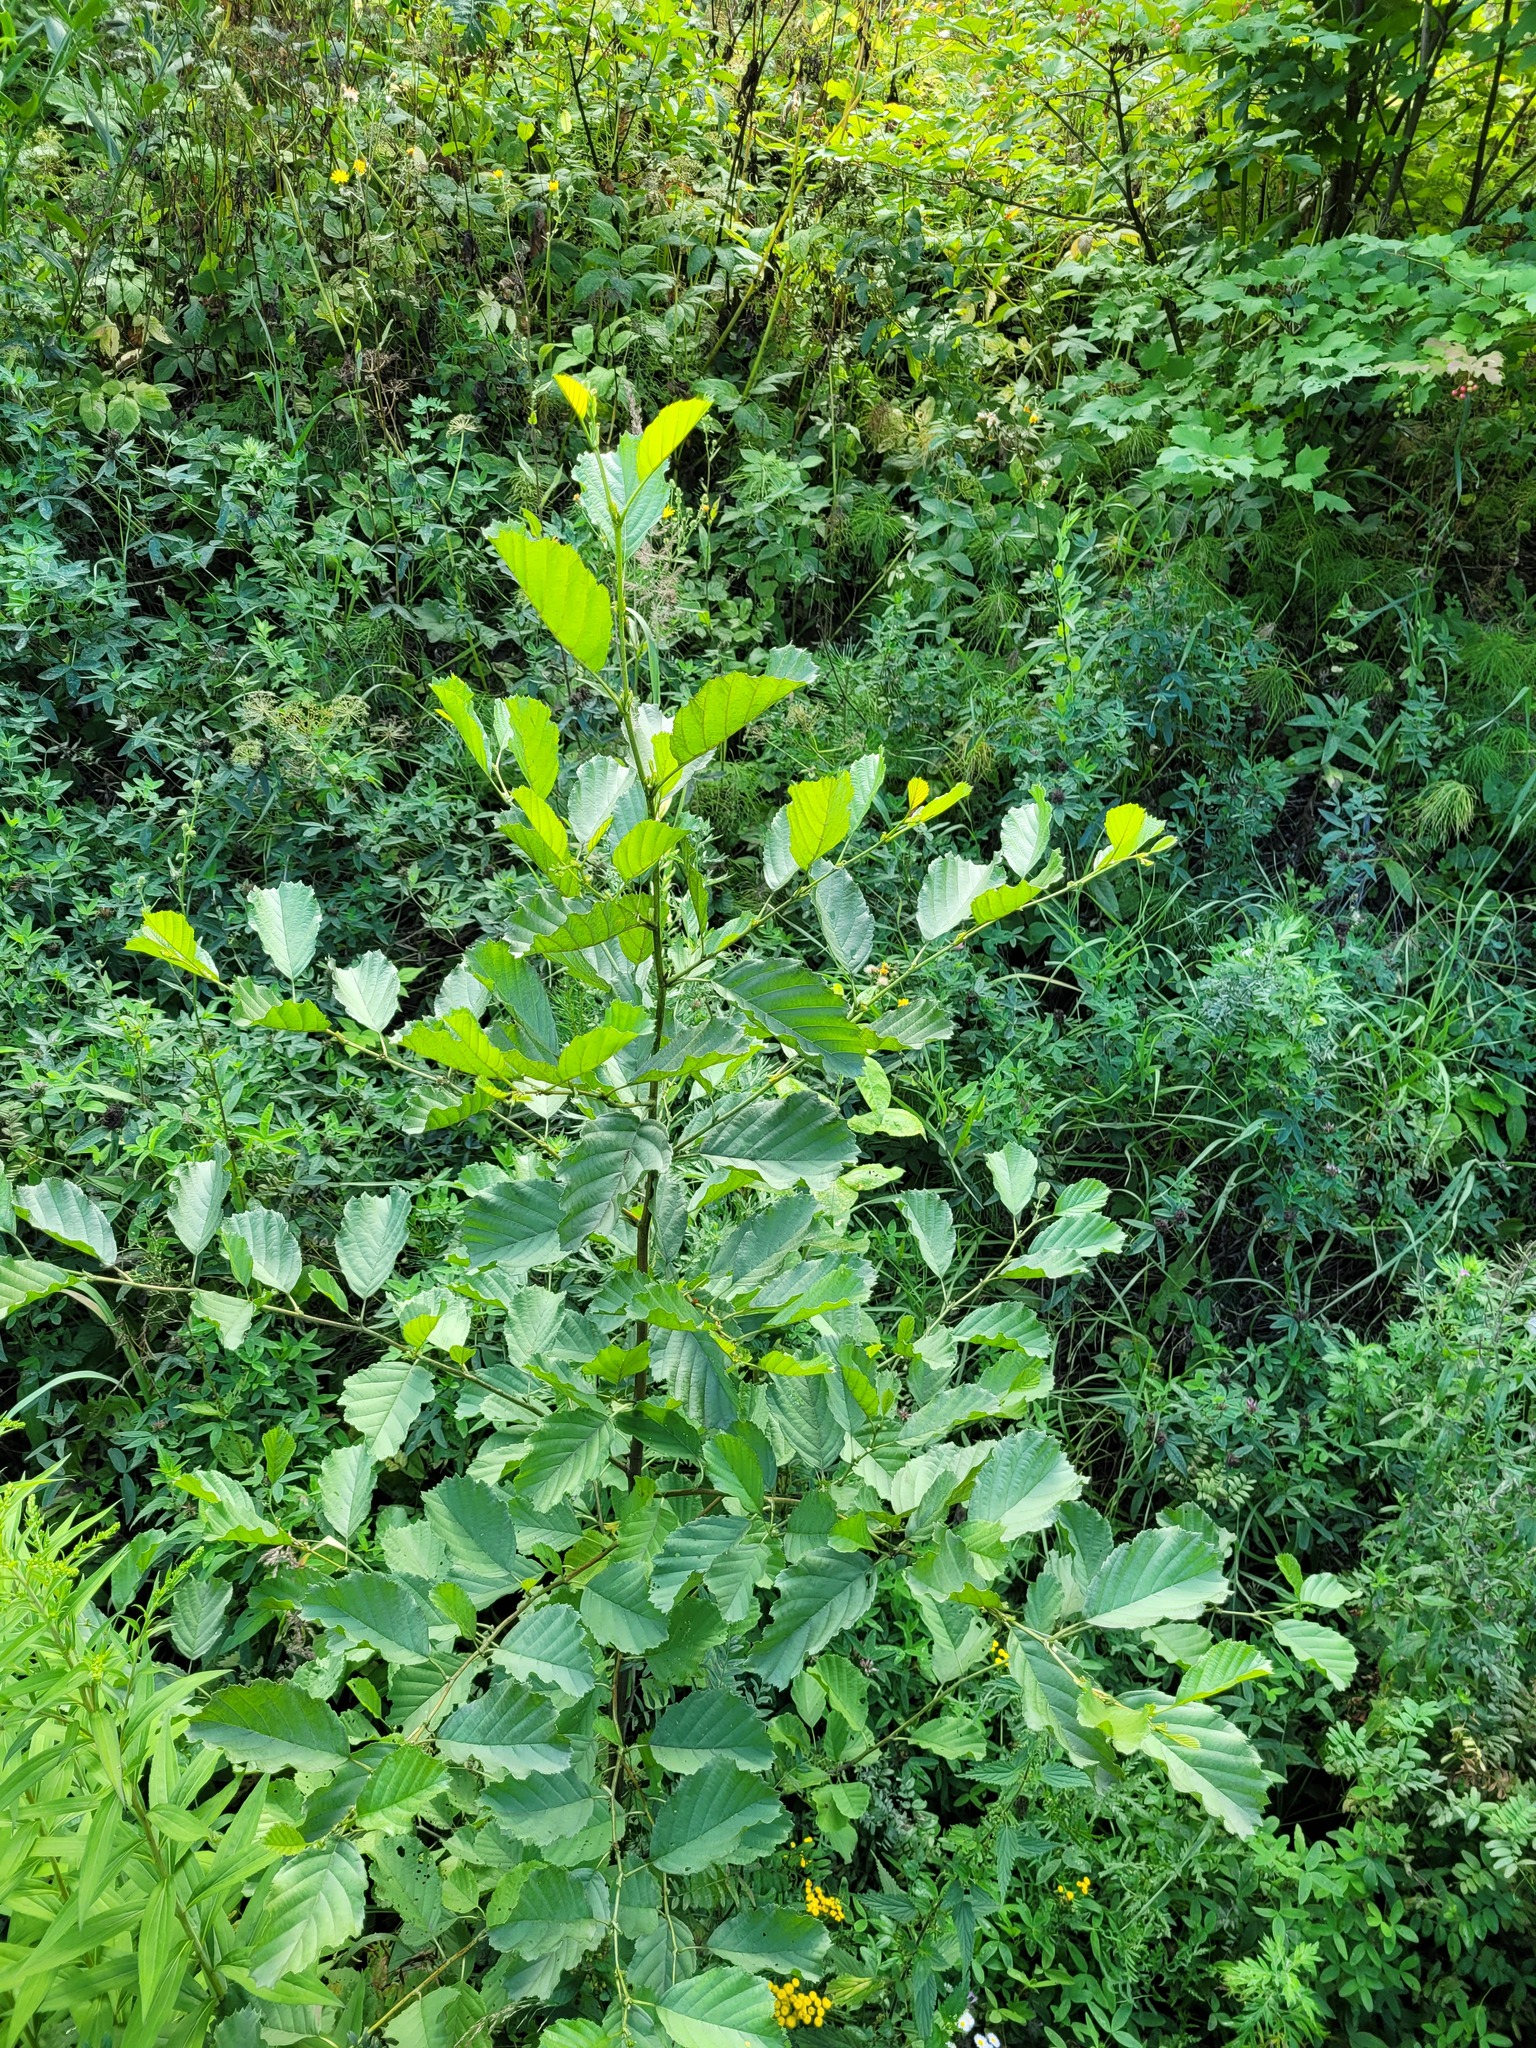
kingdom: Plantae
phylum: Tracheophyta
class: Magnoliopsida
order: Fagales
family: Betulaceae
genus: Alnus
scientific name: Alnus glutinosa
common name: Black alder
